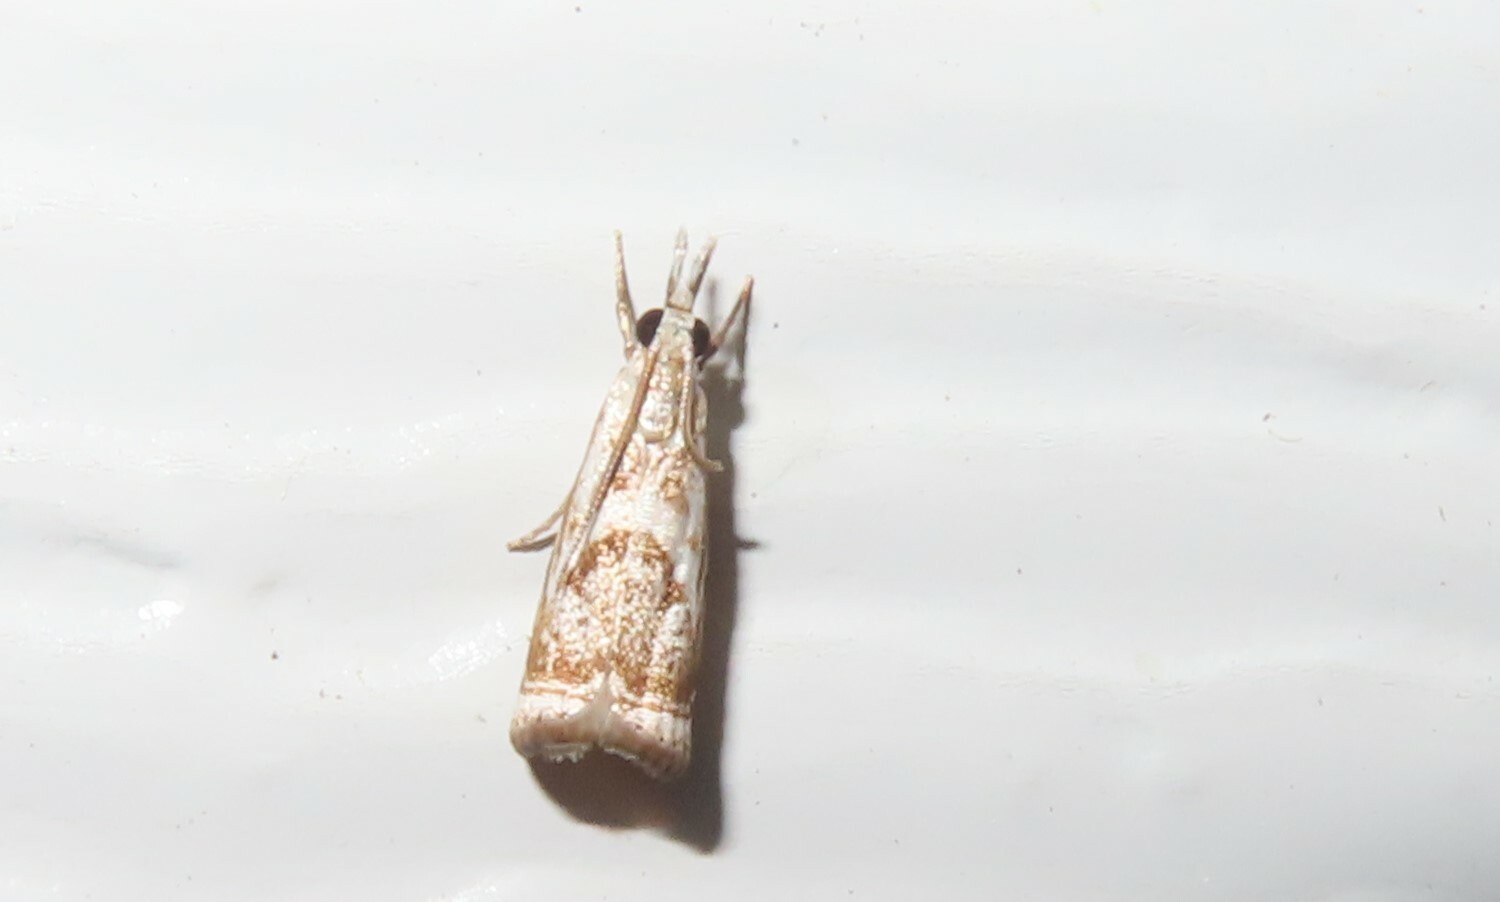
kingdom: Animalia
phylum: Arthropoda
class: Insecta
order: Lepidoptera
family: Crambidae
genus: Microcrambus
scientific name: Microcrambus elegans
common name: Elegant grass-veneer
